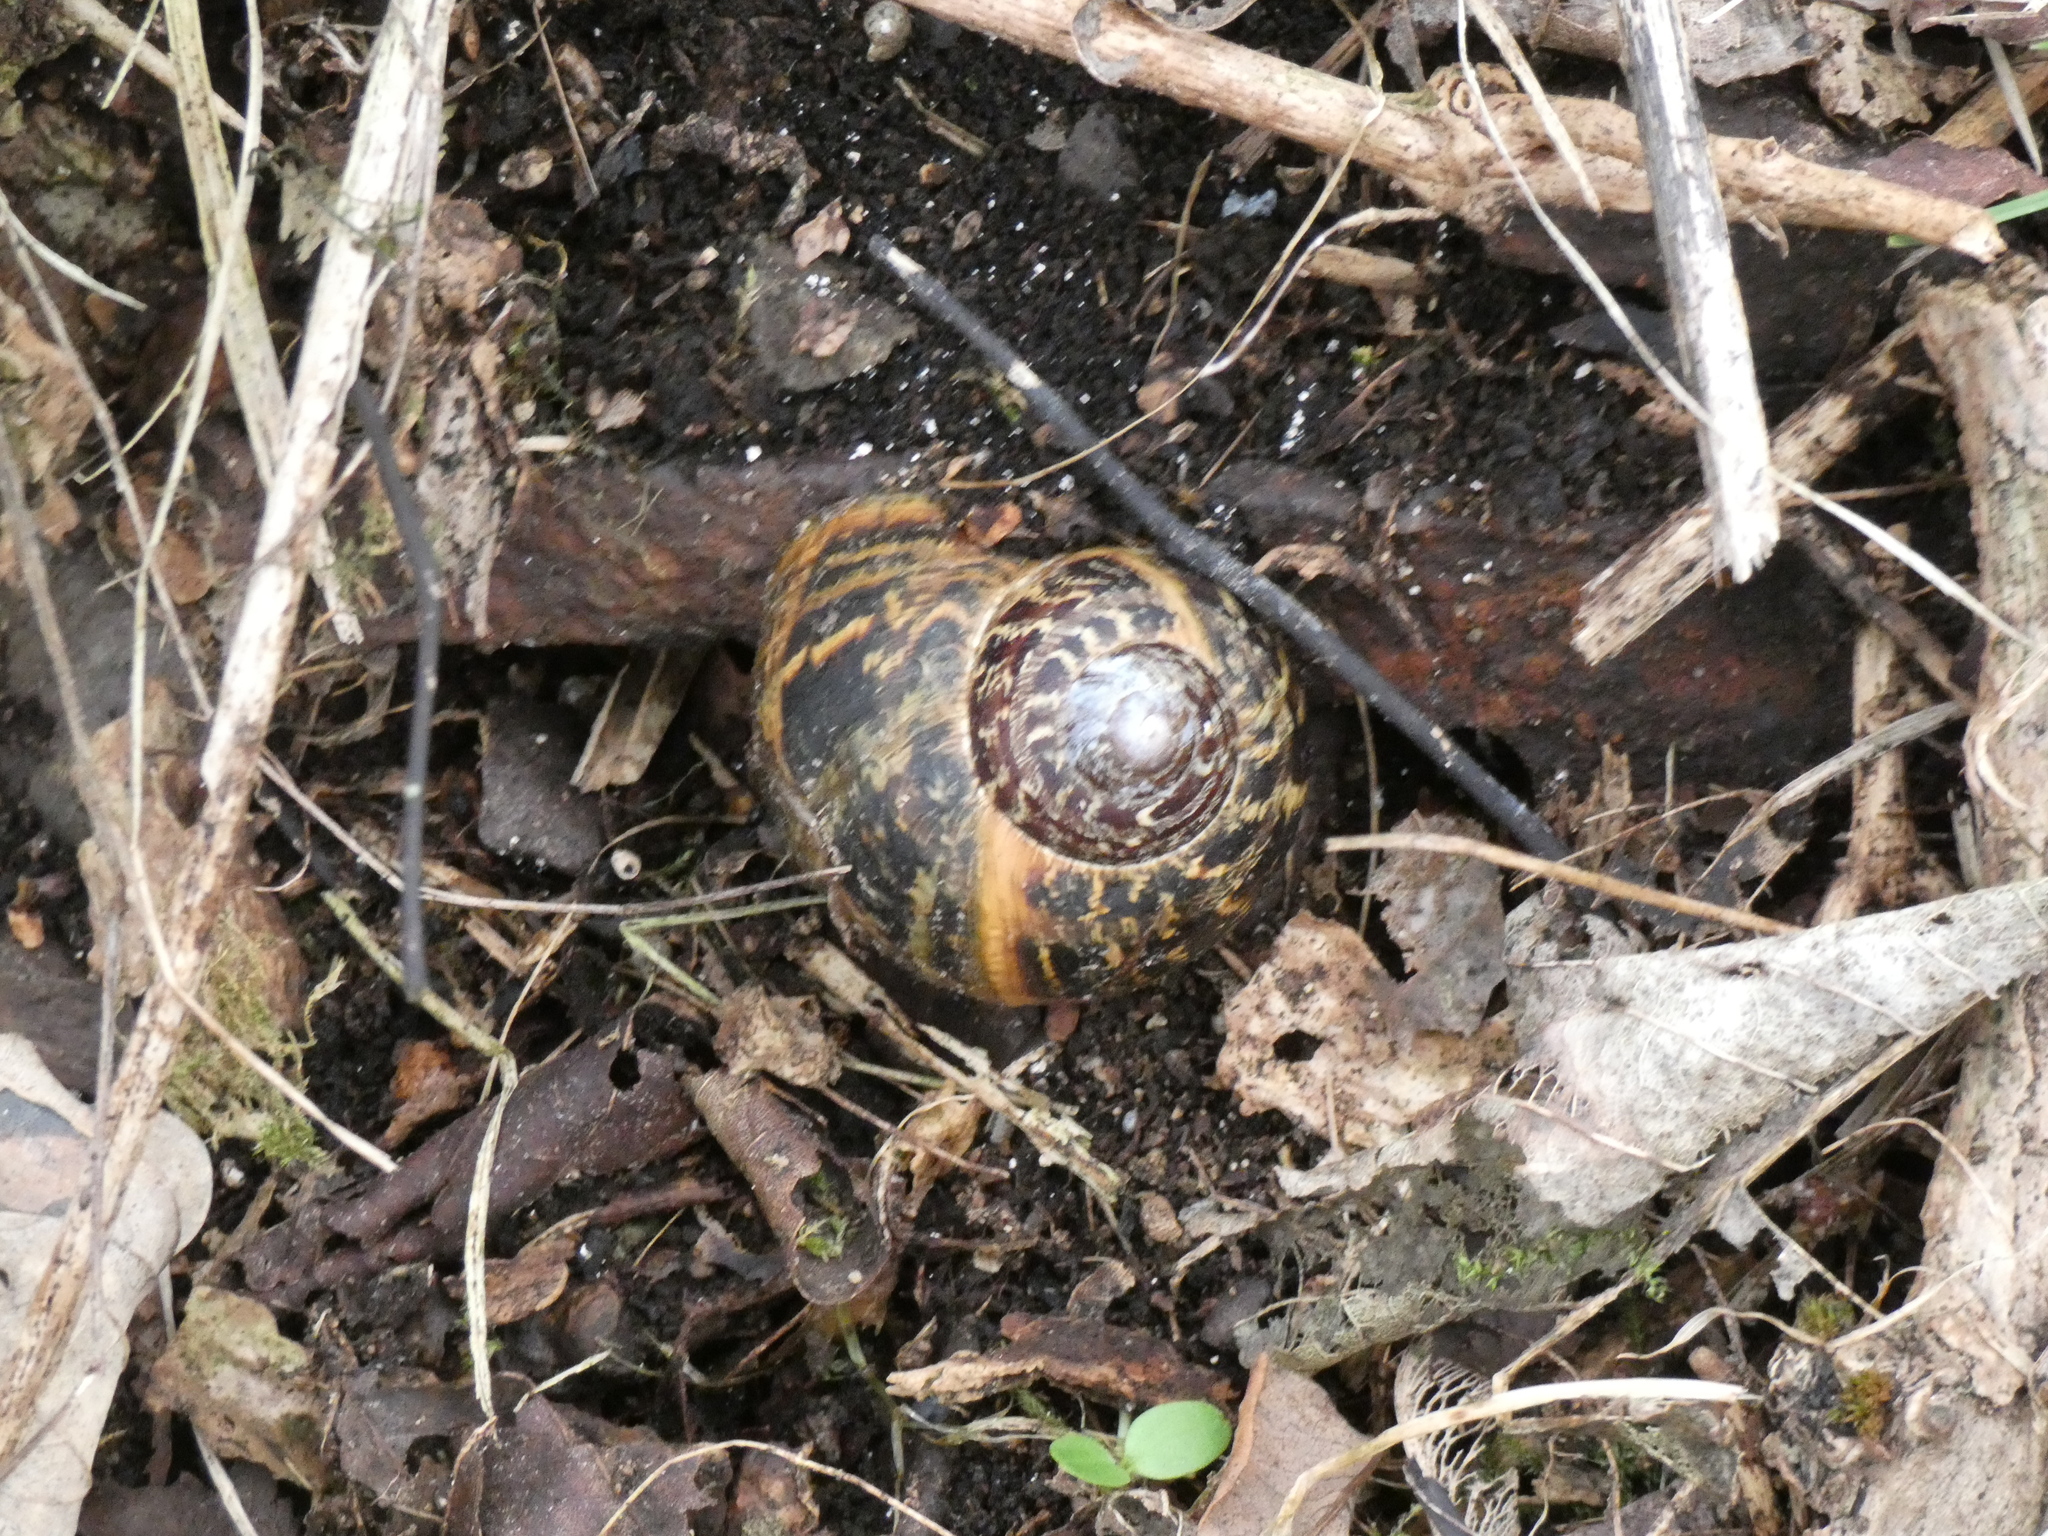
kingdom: Animalia
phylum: Mollusca
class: Gastropoda
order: Stylommatophora
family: Helicidae
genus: Cornu
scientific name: Cornu aspersum
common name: Brown garden snail
